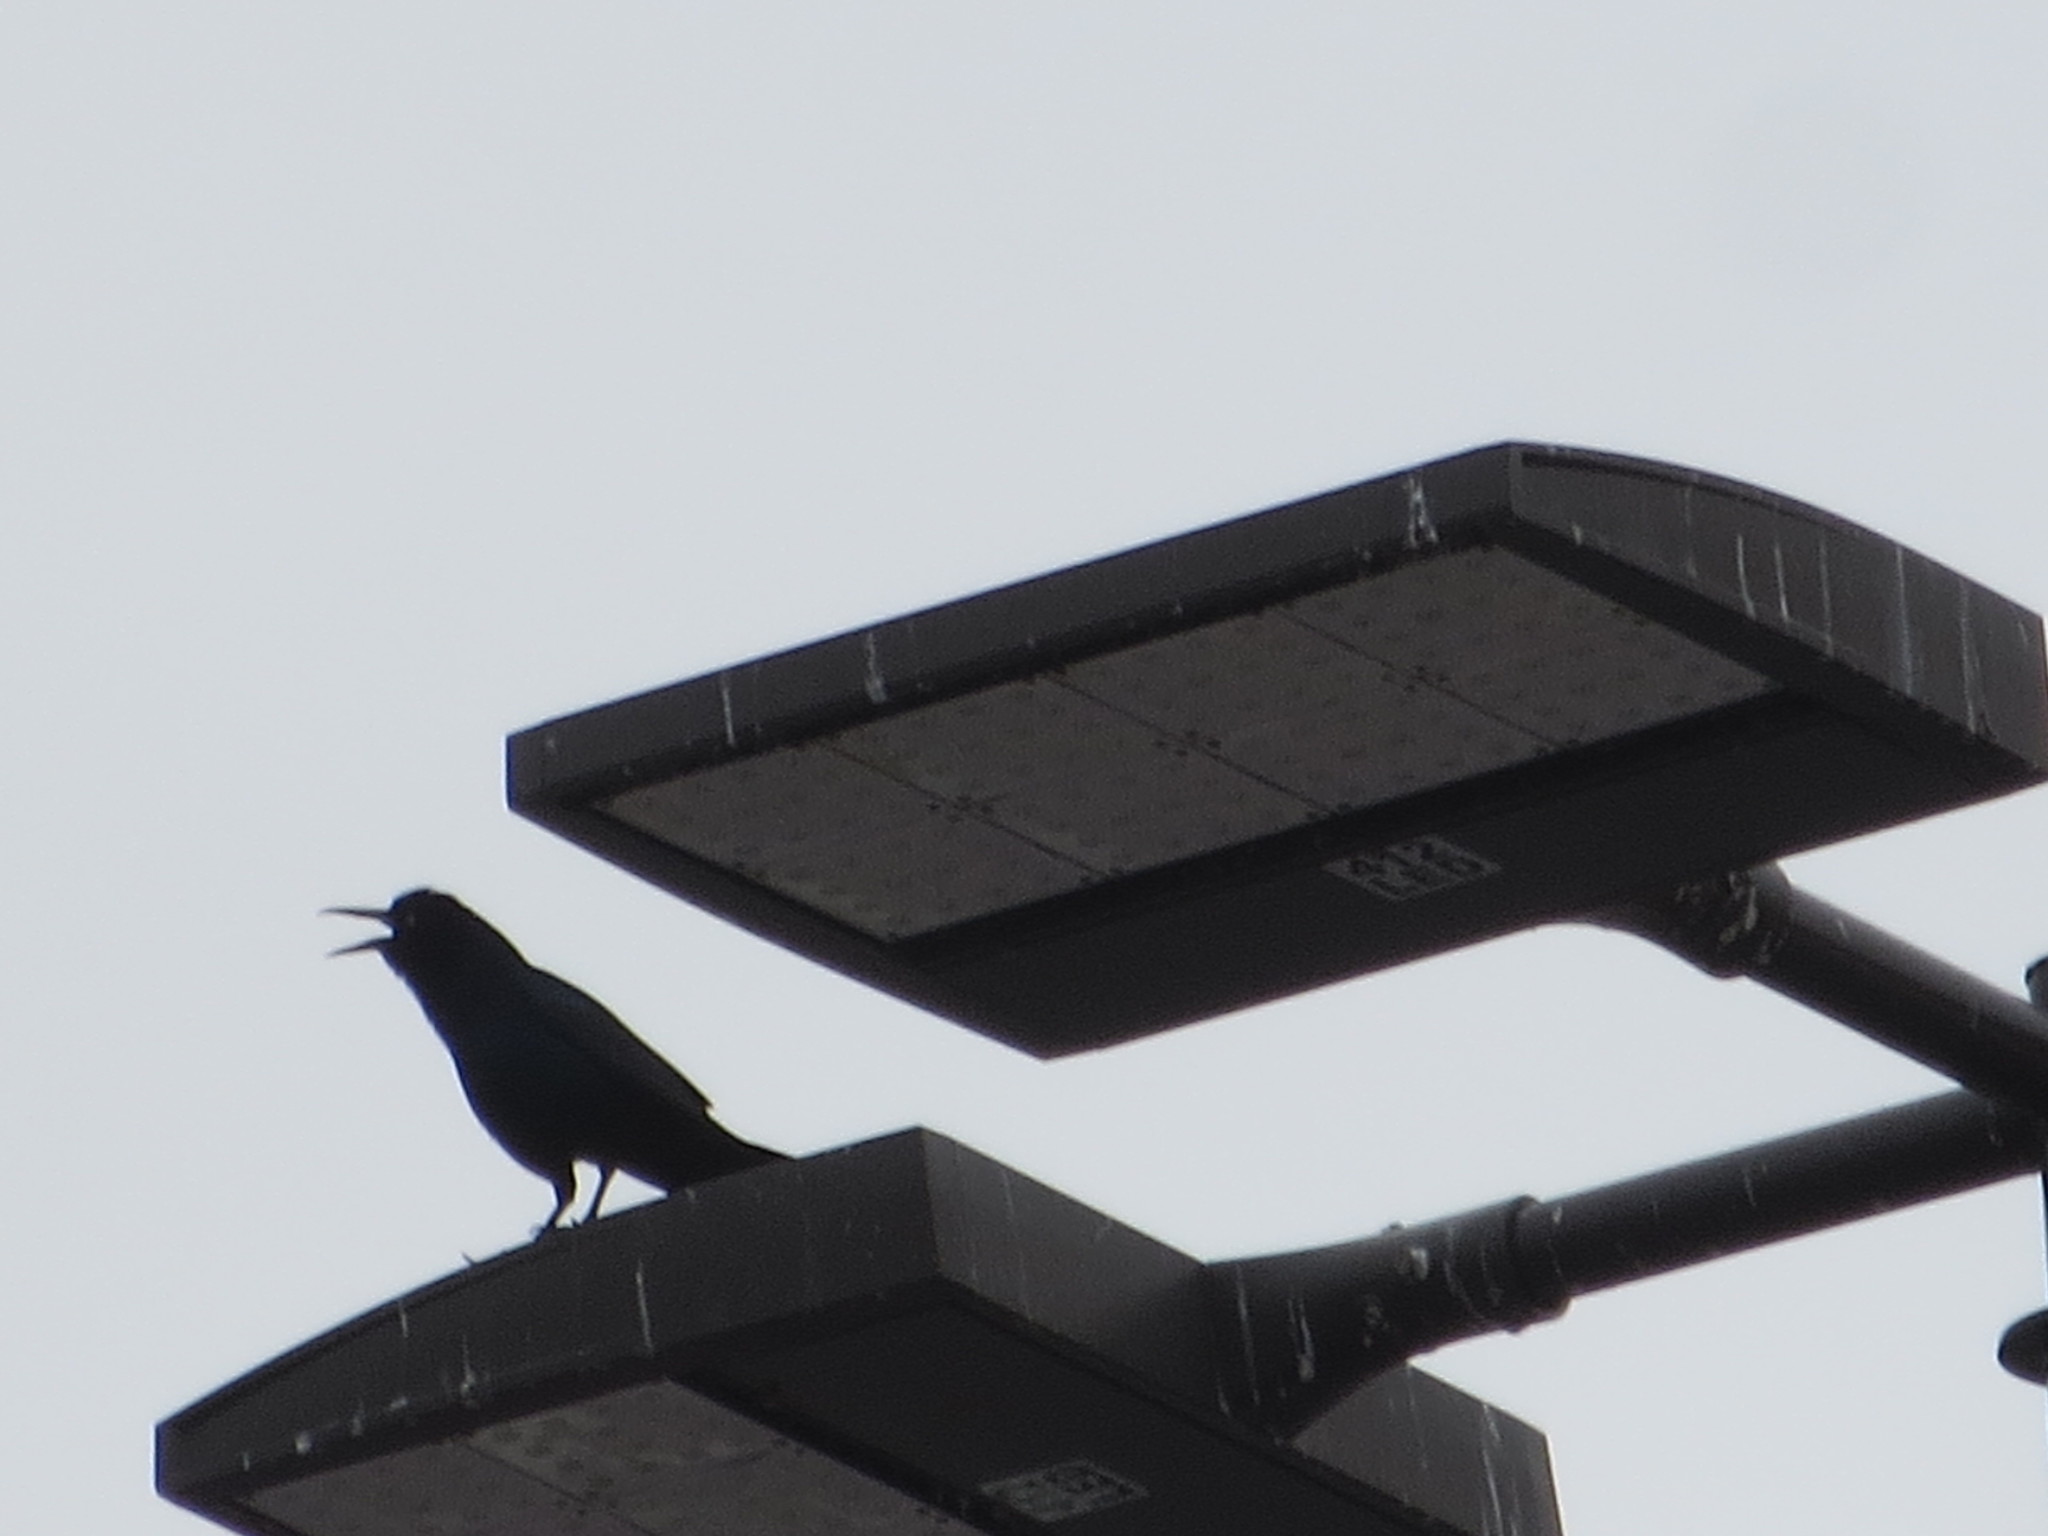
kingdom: Animalia
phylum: Chordata
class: Aves
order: Passeriformes
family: Icteridae
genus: Quiscalus
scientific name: Quiscalus major
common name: Boat-tailed grackle
